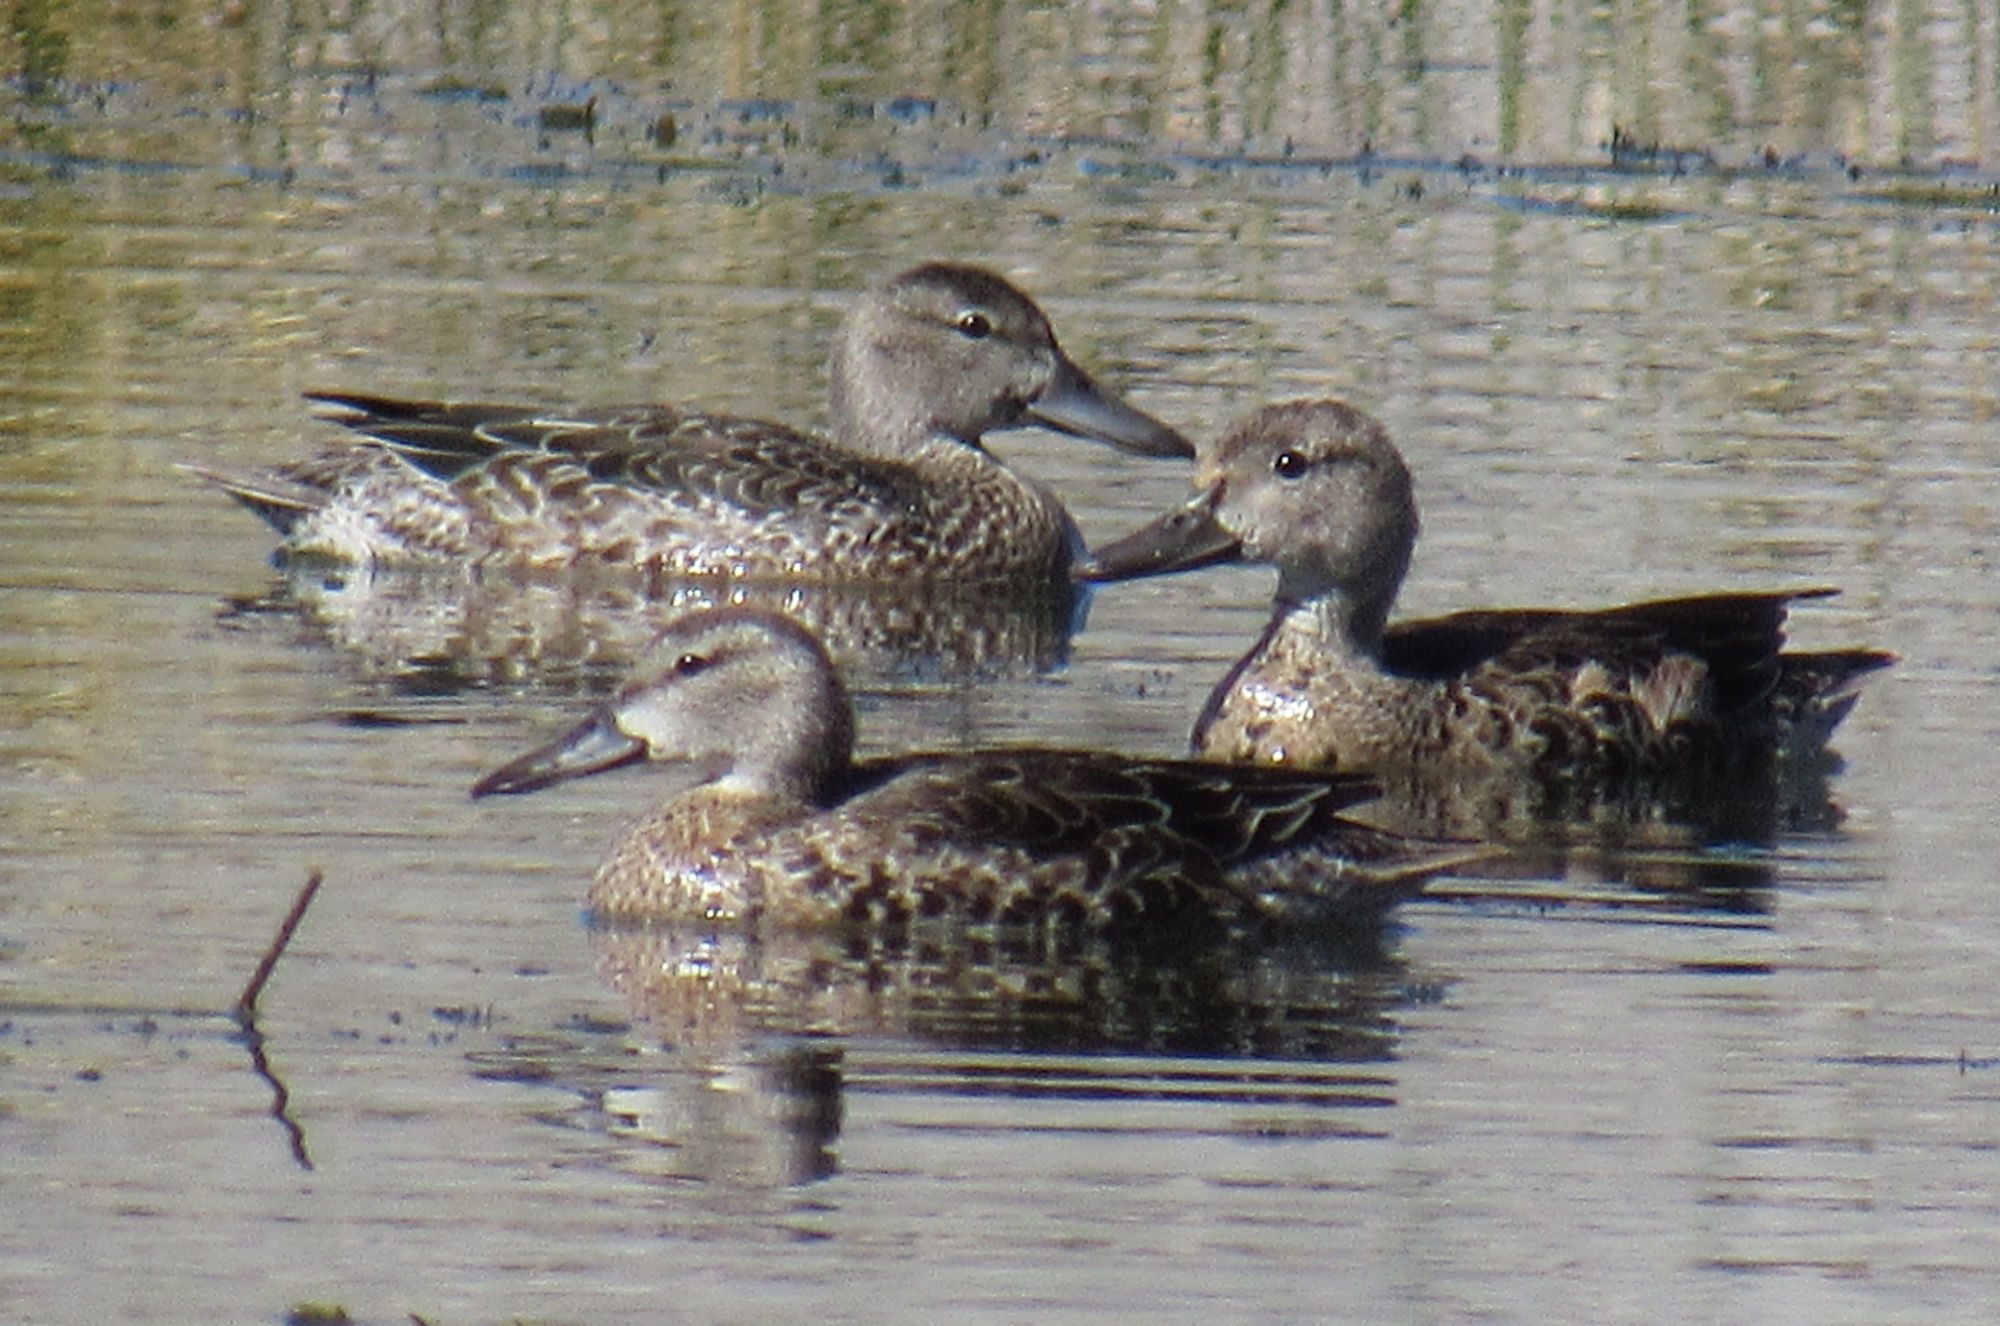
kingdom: Animalia
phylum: Chordata
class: Aves
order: Anseriformes
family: Anatidae
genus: Spatula
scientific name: Spatula cyanoptera
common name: Cinnamon teal
